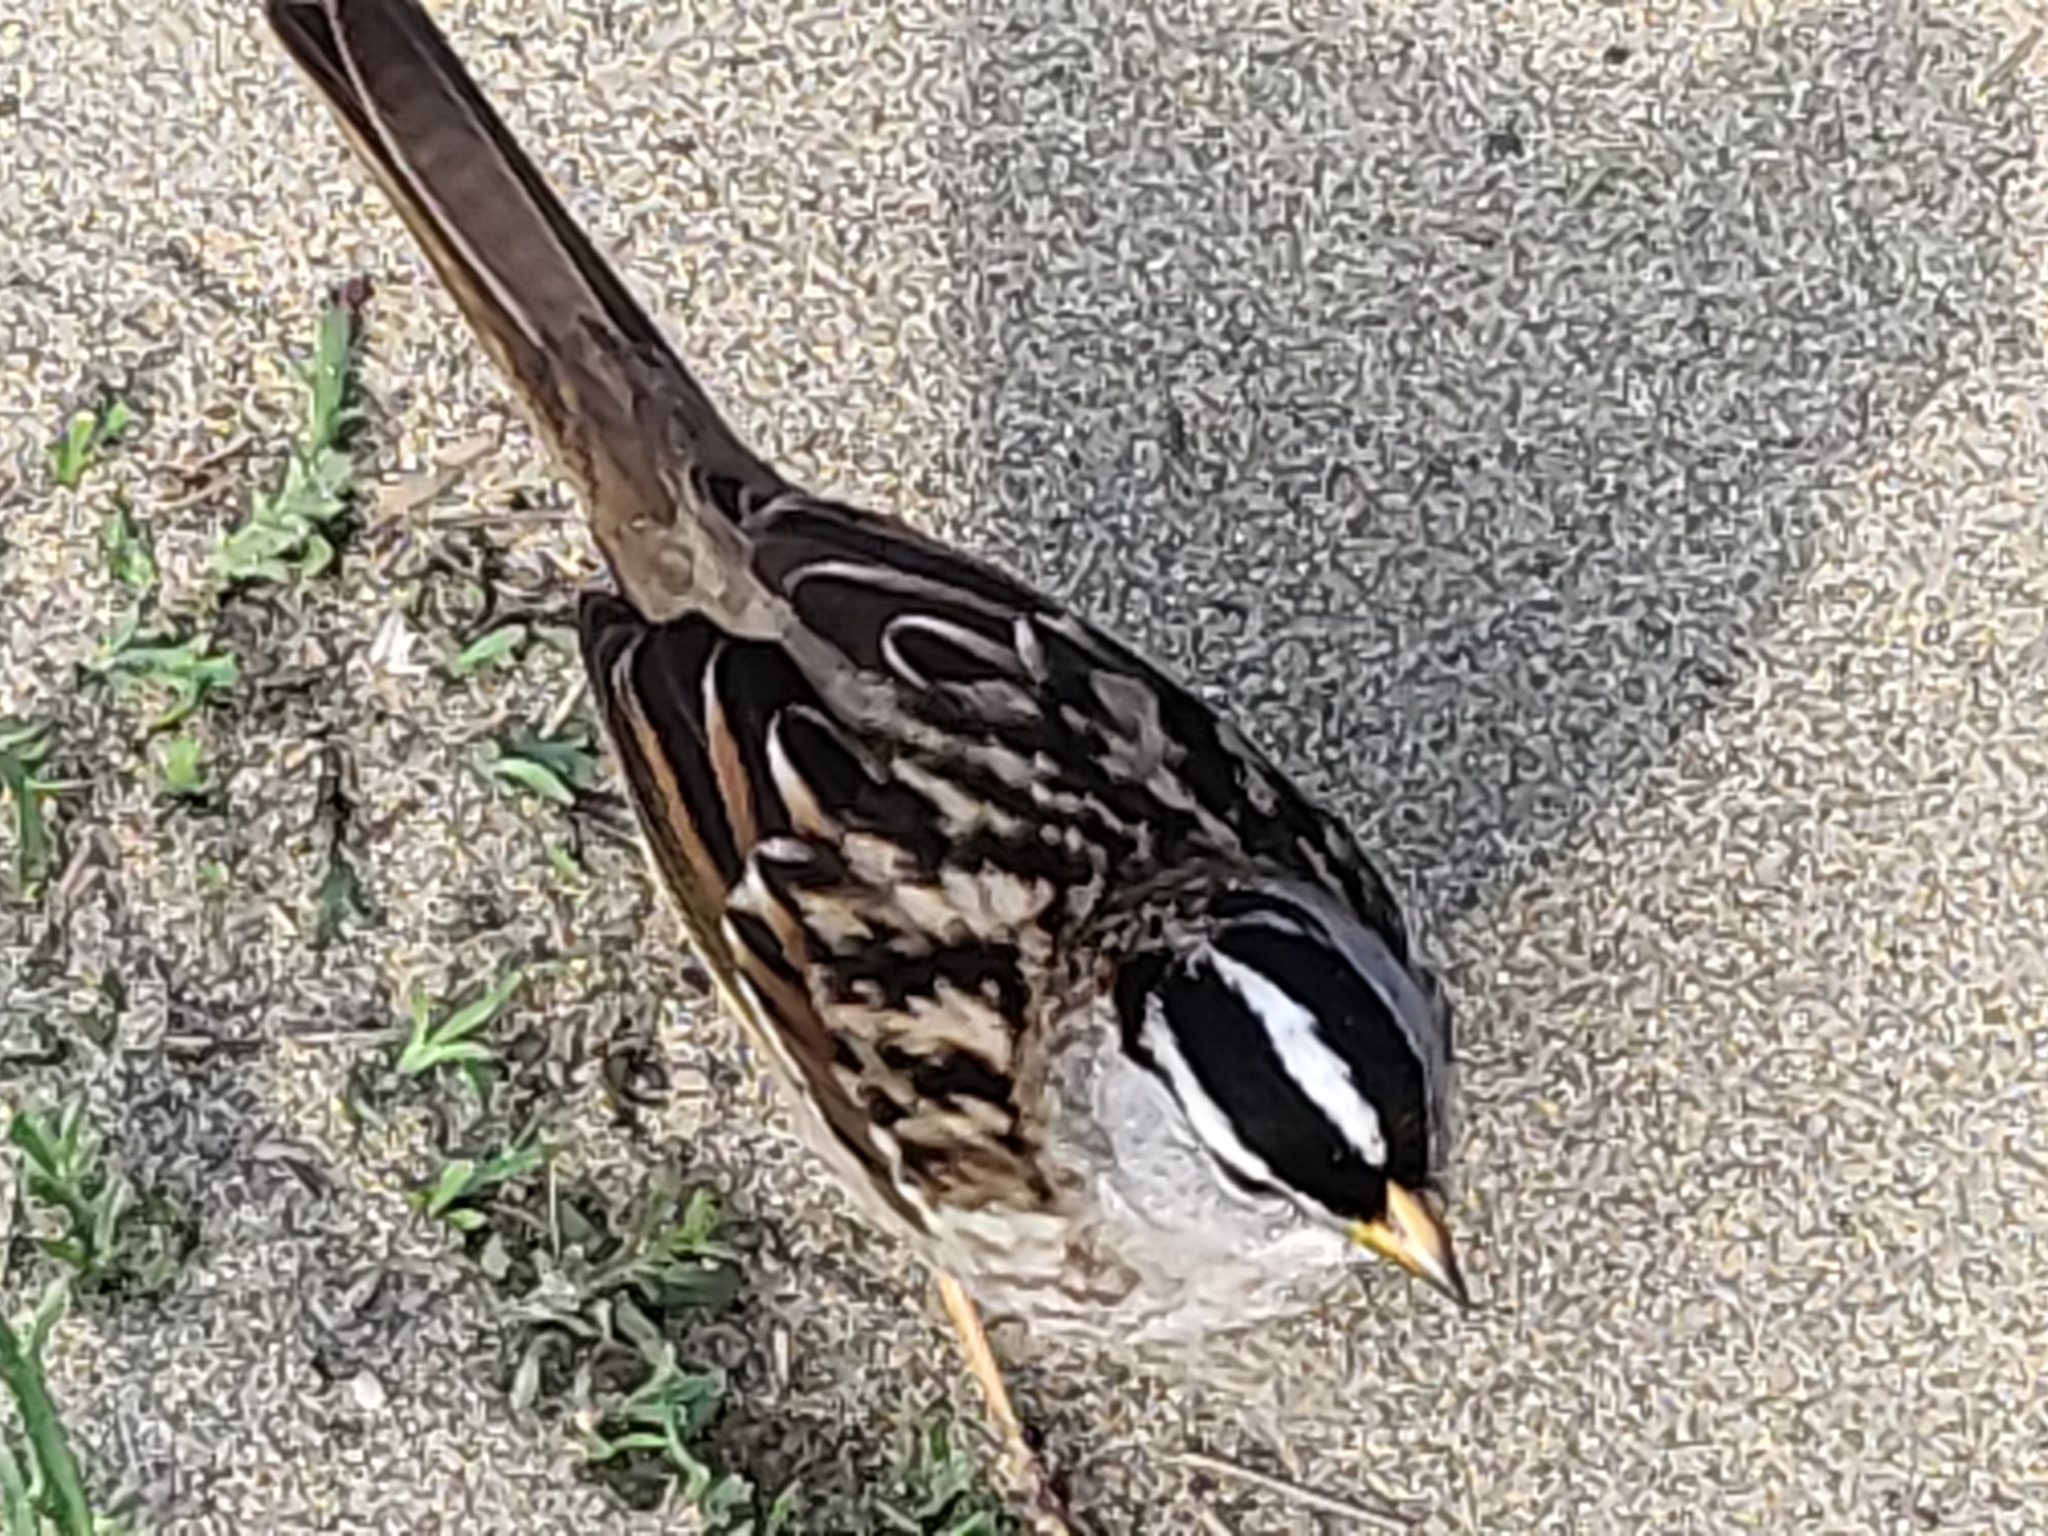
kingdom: Animalia
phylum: Chordata
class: Aves
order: Passeriformes
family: Passerellidae
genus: Zonotrichia
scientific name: Zonotrichia leucophrys
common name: White-crowned sparrow
